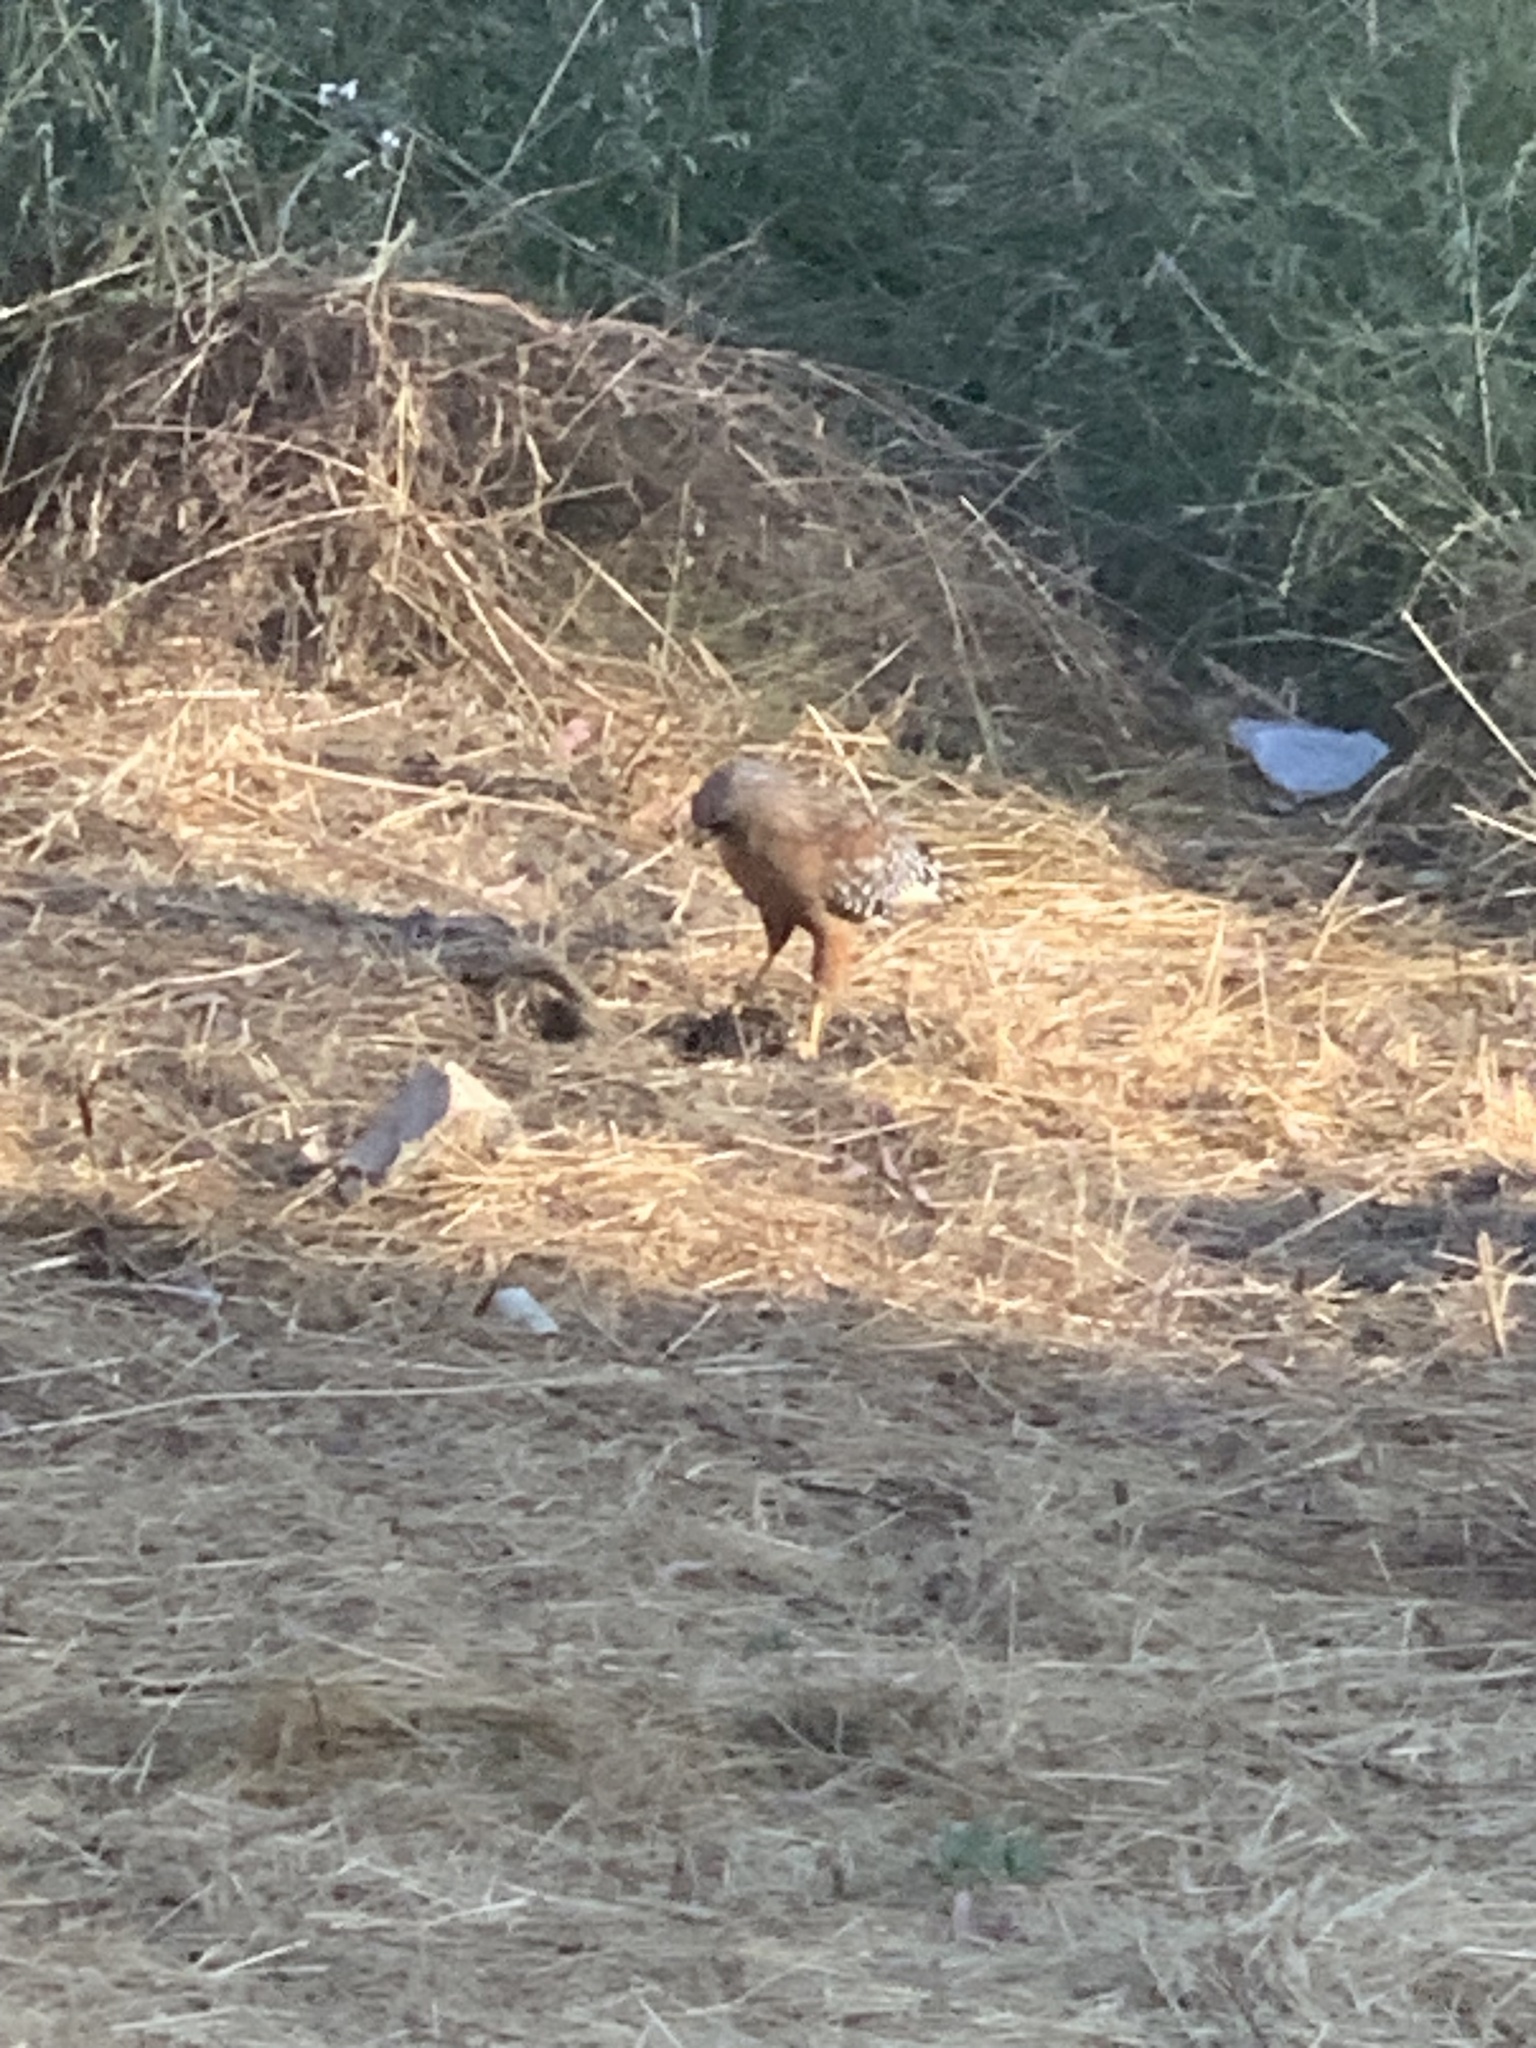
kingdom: Animalia
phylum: Chordata
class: Aves
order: Accipitriformes
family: Accipitridae
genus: Buteo
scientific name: Buteo lineatus
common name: Red-shouldered hawk
